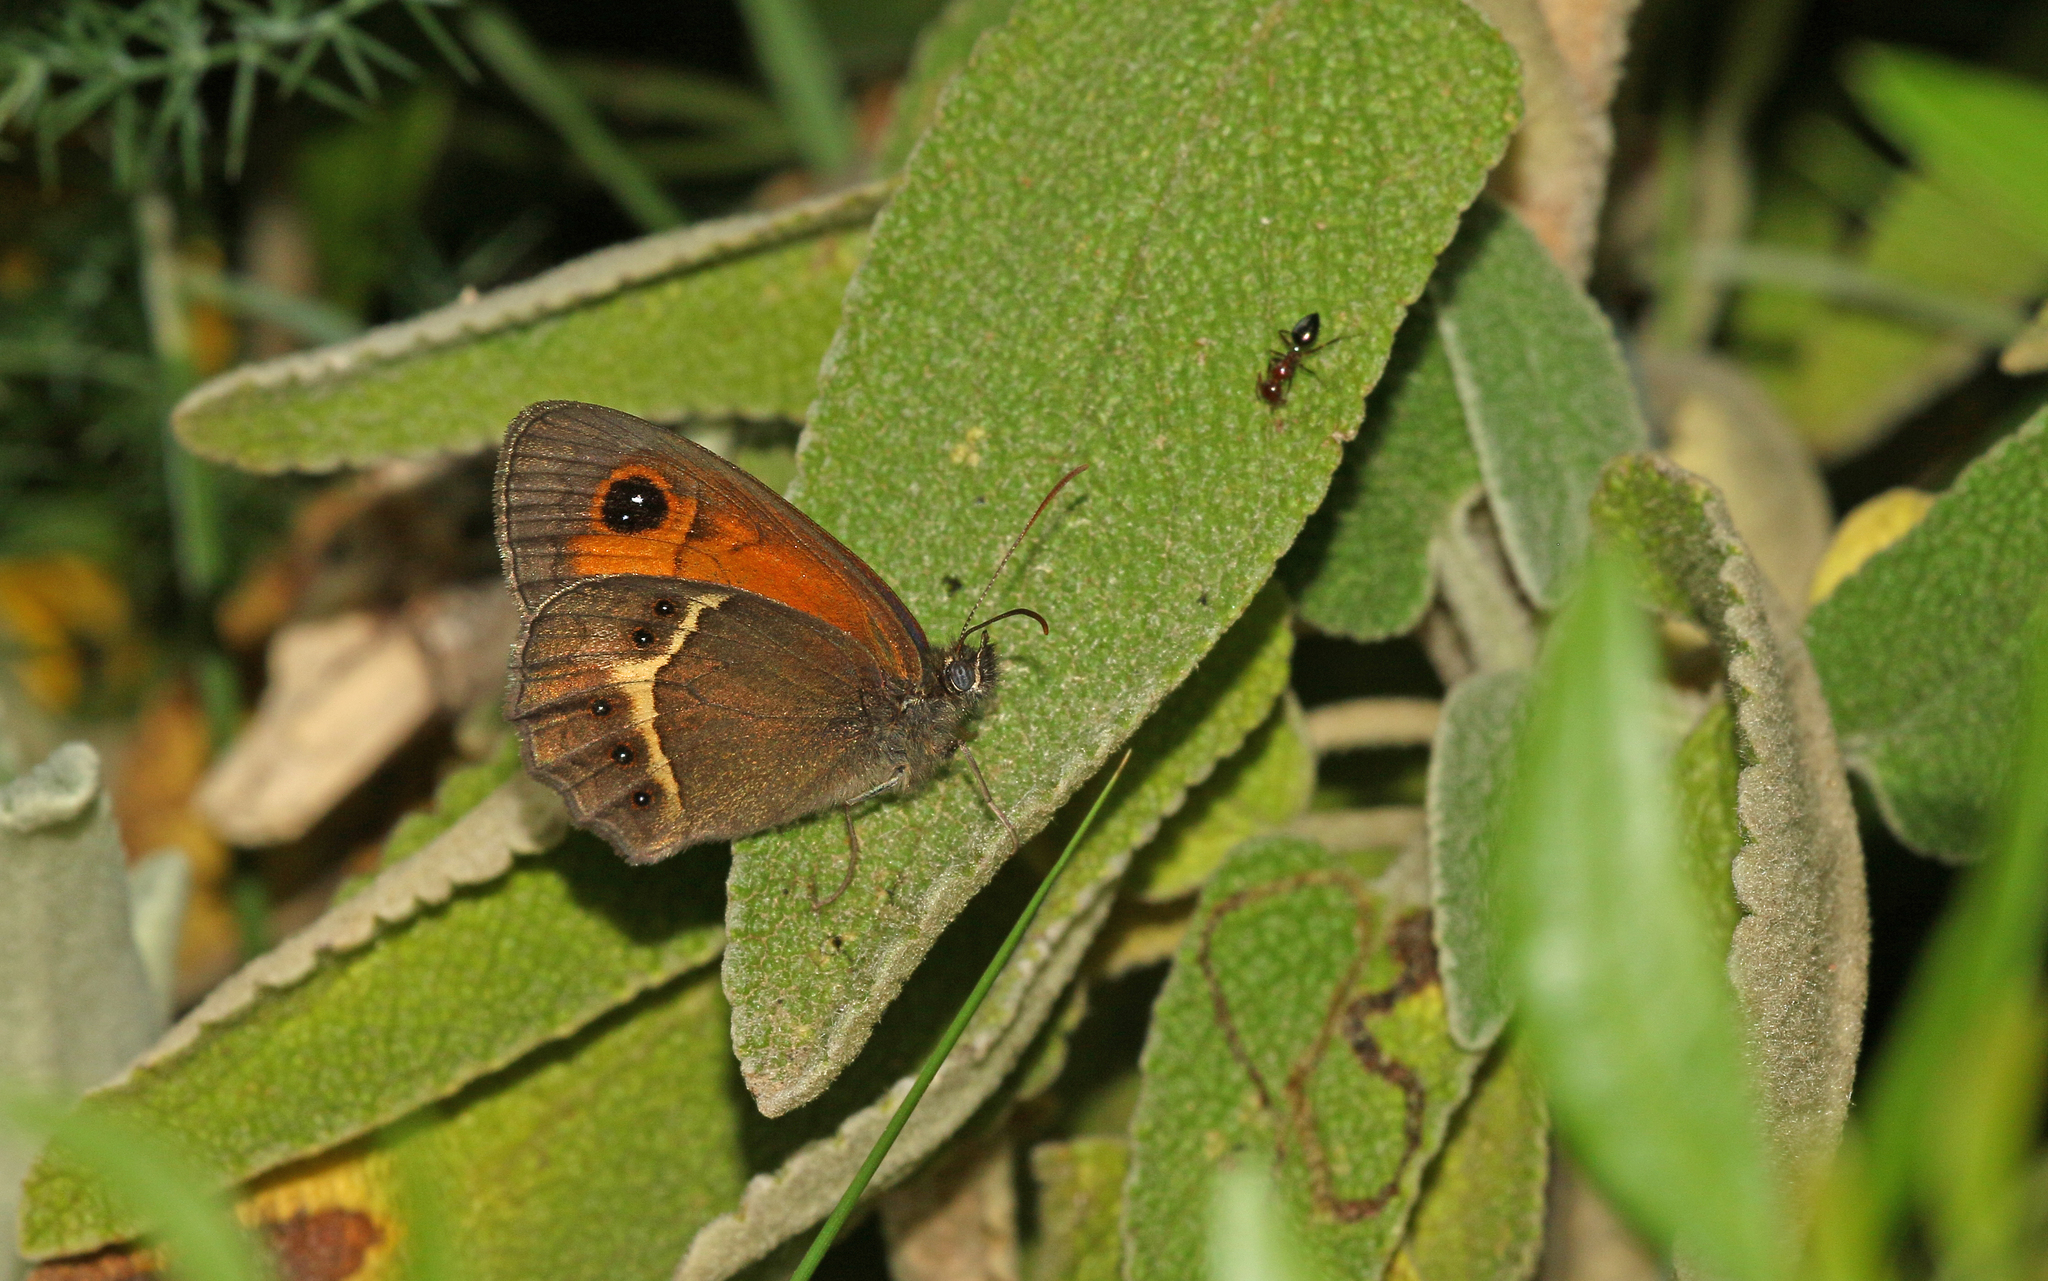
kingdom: Animalia
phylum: Arthropoda
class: Insecta
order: Lepidoptera
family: Nymphalidae
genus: Pyronia
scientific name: Pyronia bathseba
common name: Spanish gatekeeper
